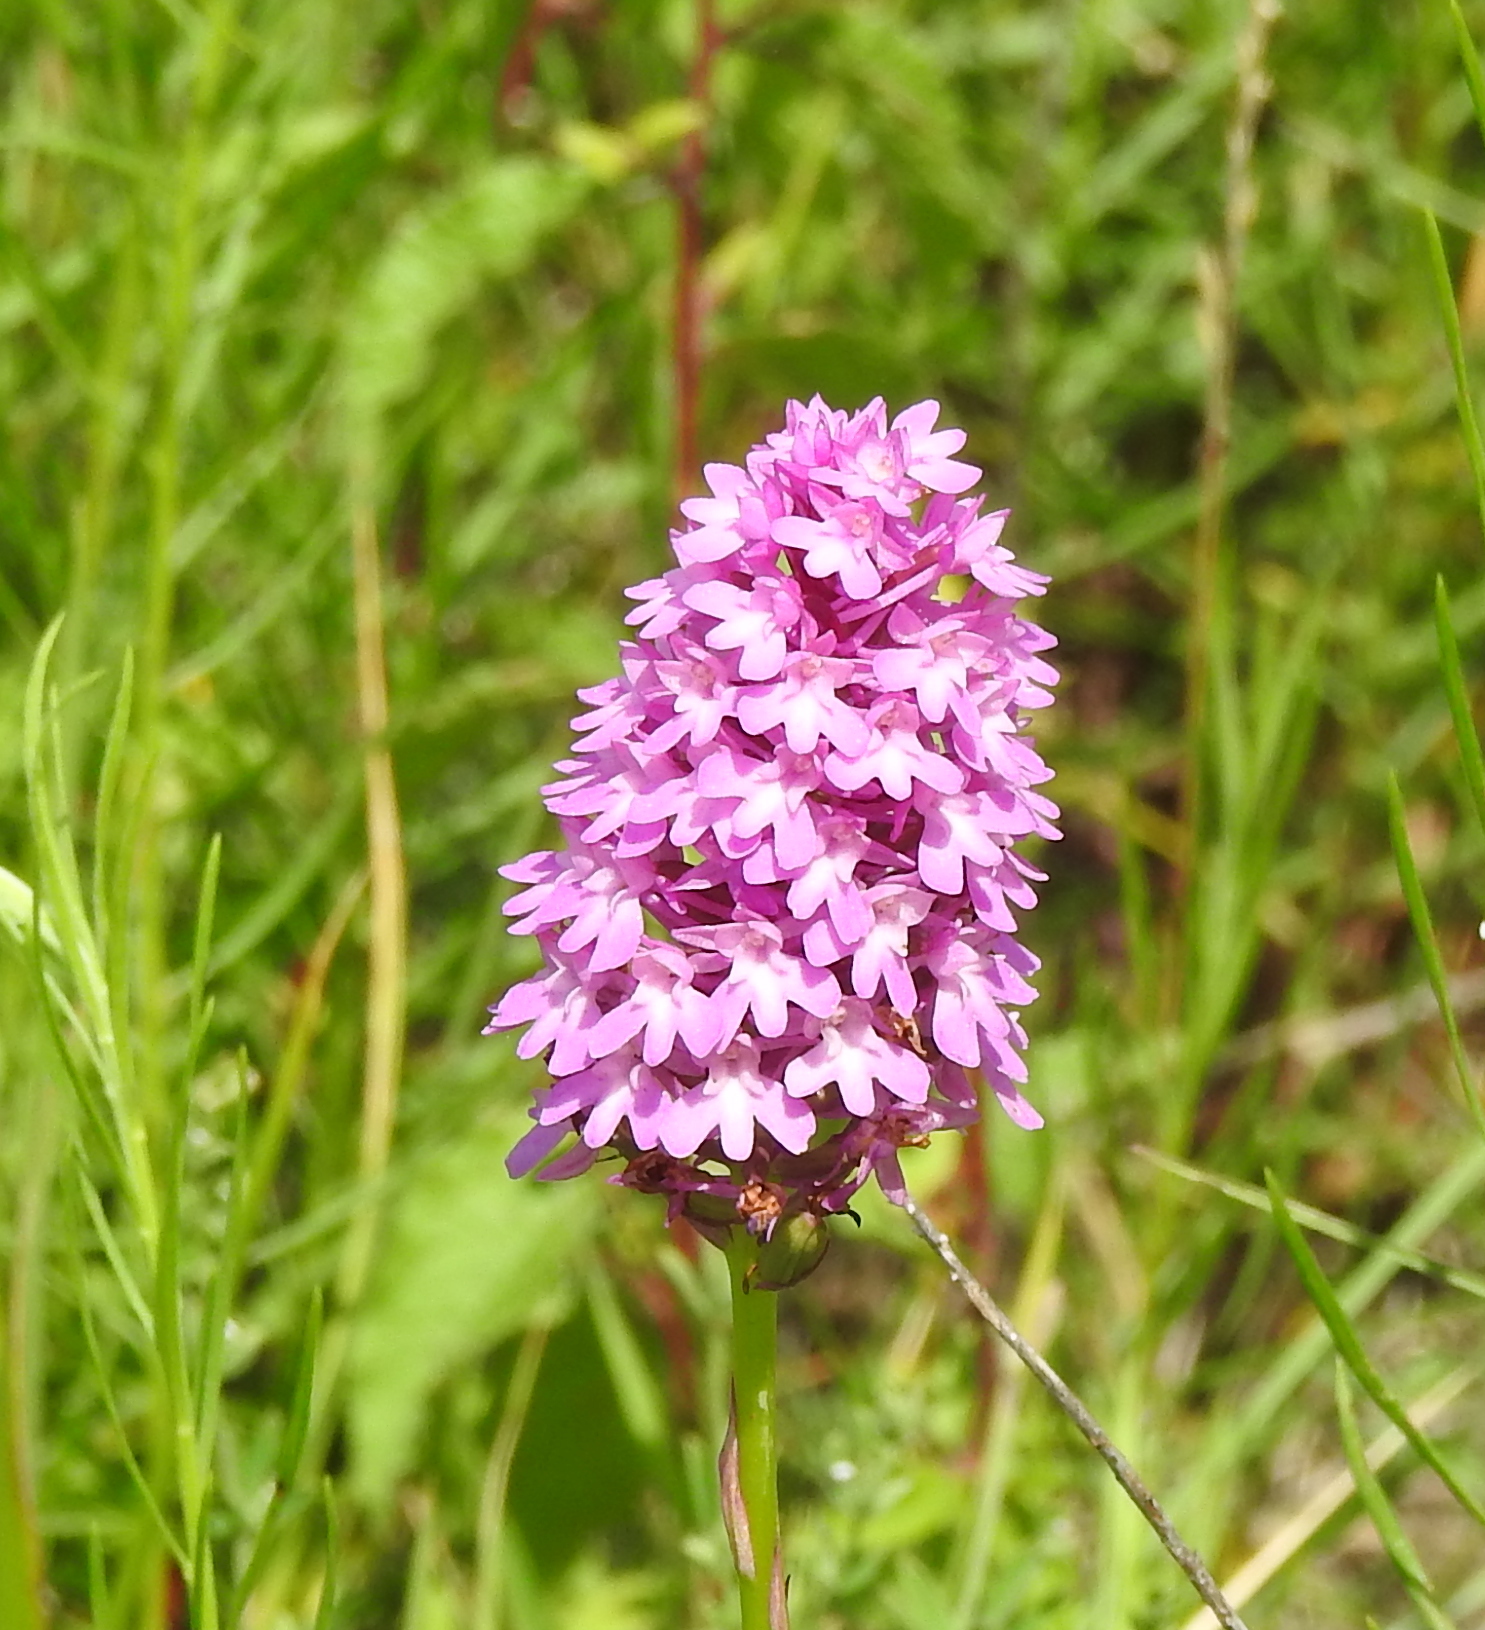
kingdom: Plantae
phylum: Tracheophyta
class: Liliopsida
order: Asparagales
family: Orchidaceae
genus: Anacamptis
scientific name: Anacamptis pyramidalis
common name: Pyramidal orchid
